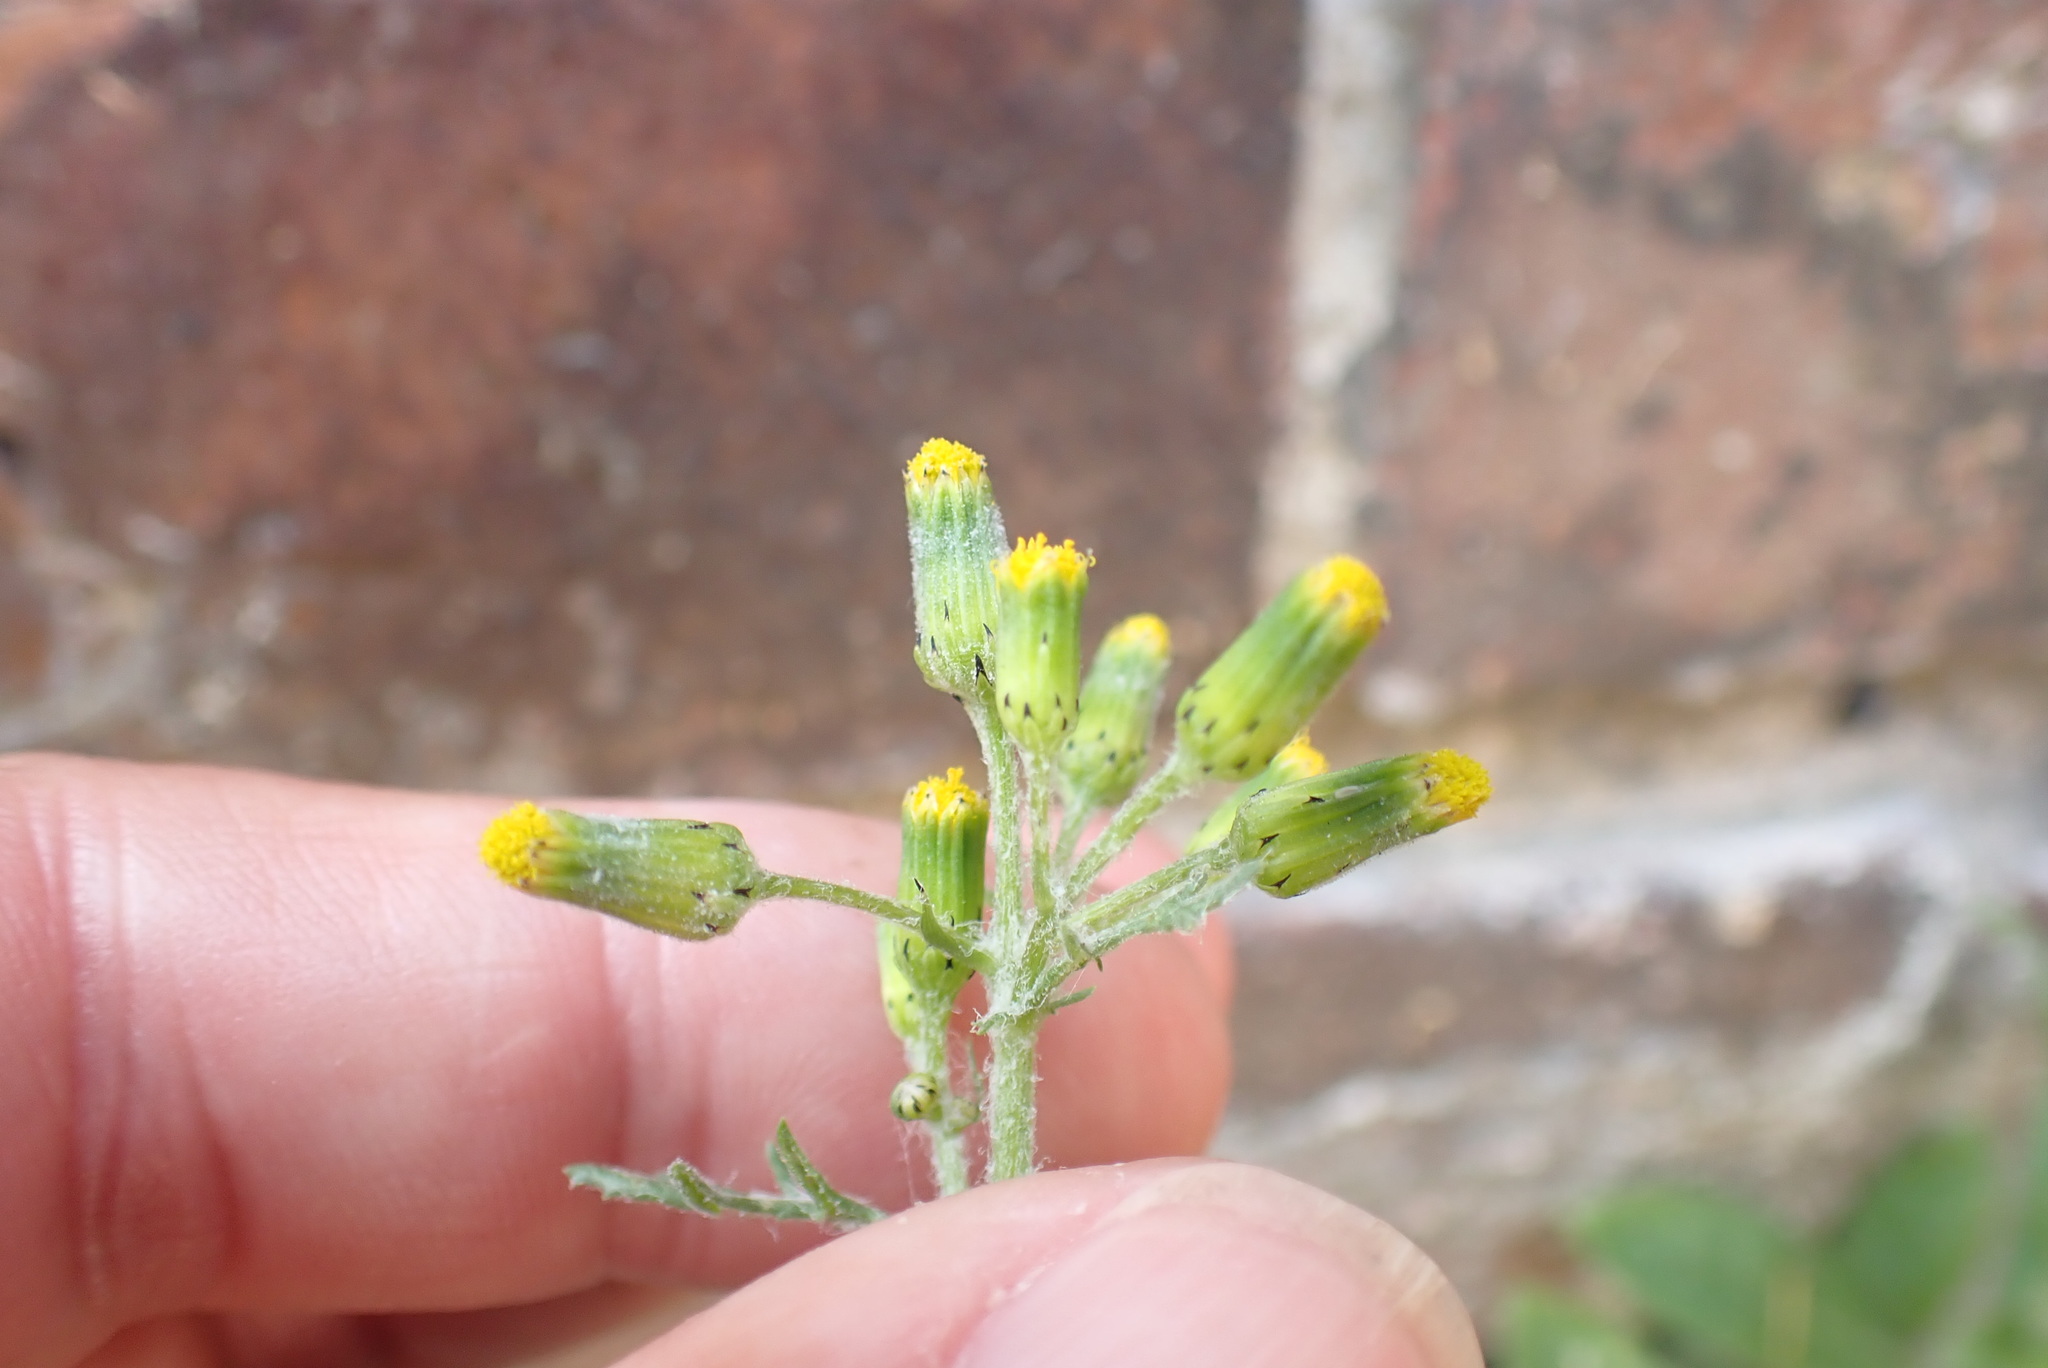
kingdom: Plantae
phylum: Tracheophyta
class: Magnoliopsida
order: Asterales
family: Asteraceae
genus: Senecio
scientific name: Senecio vulgaris
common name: Old-man-in-the-spring
